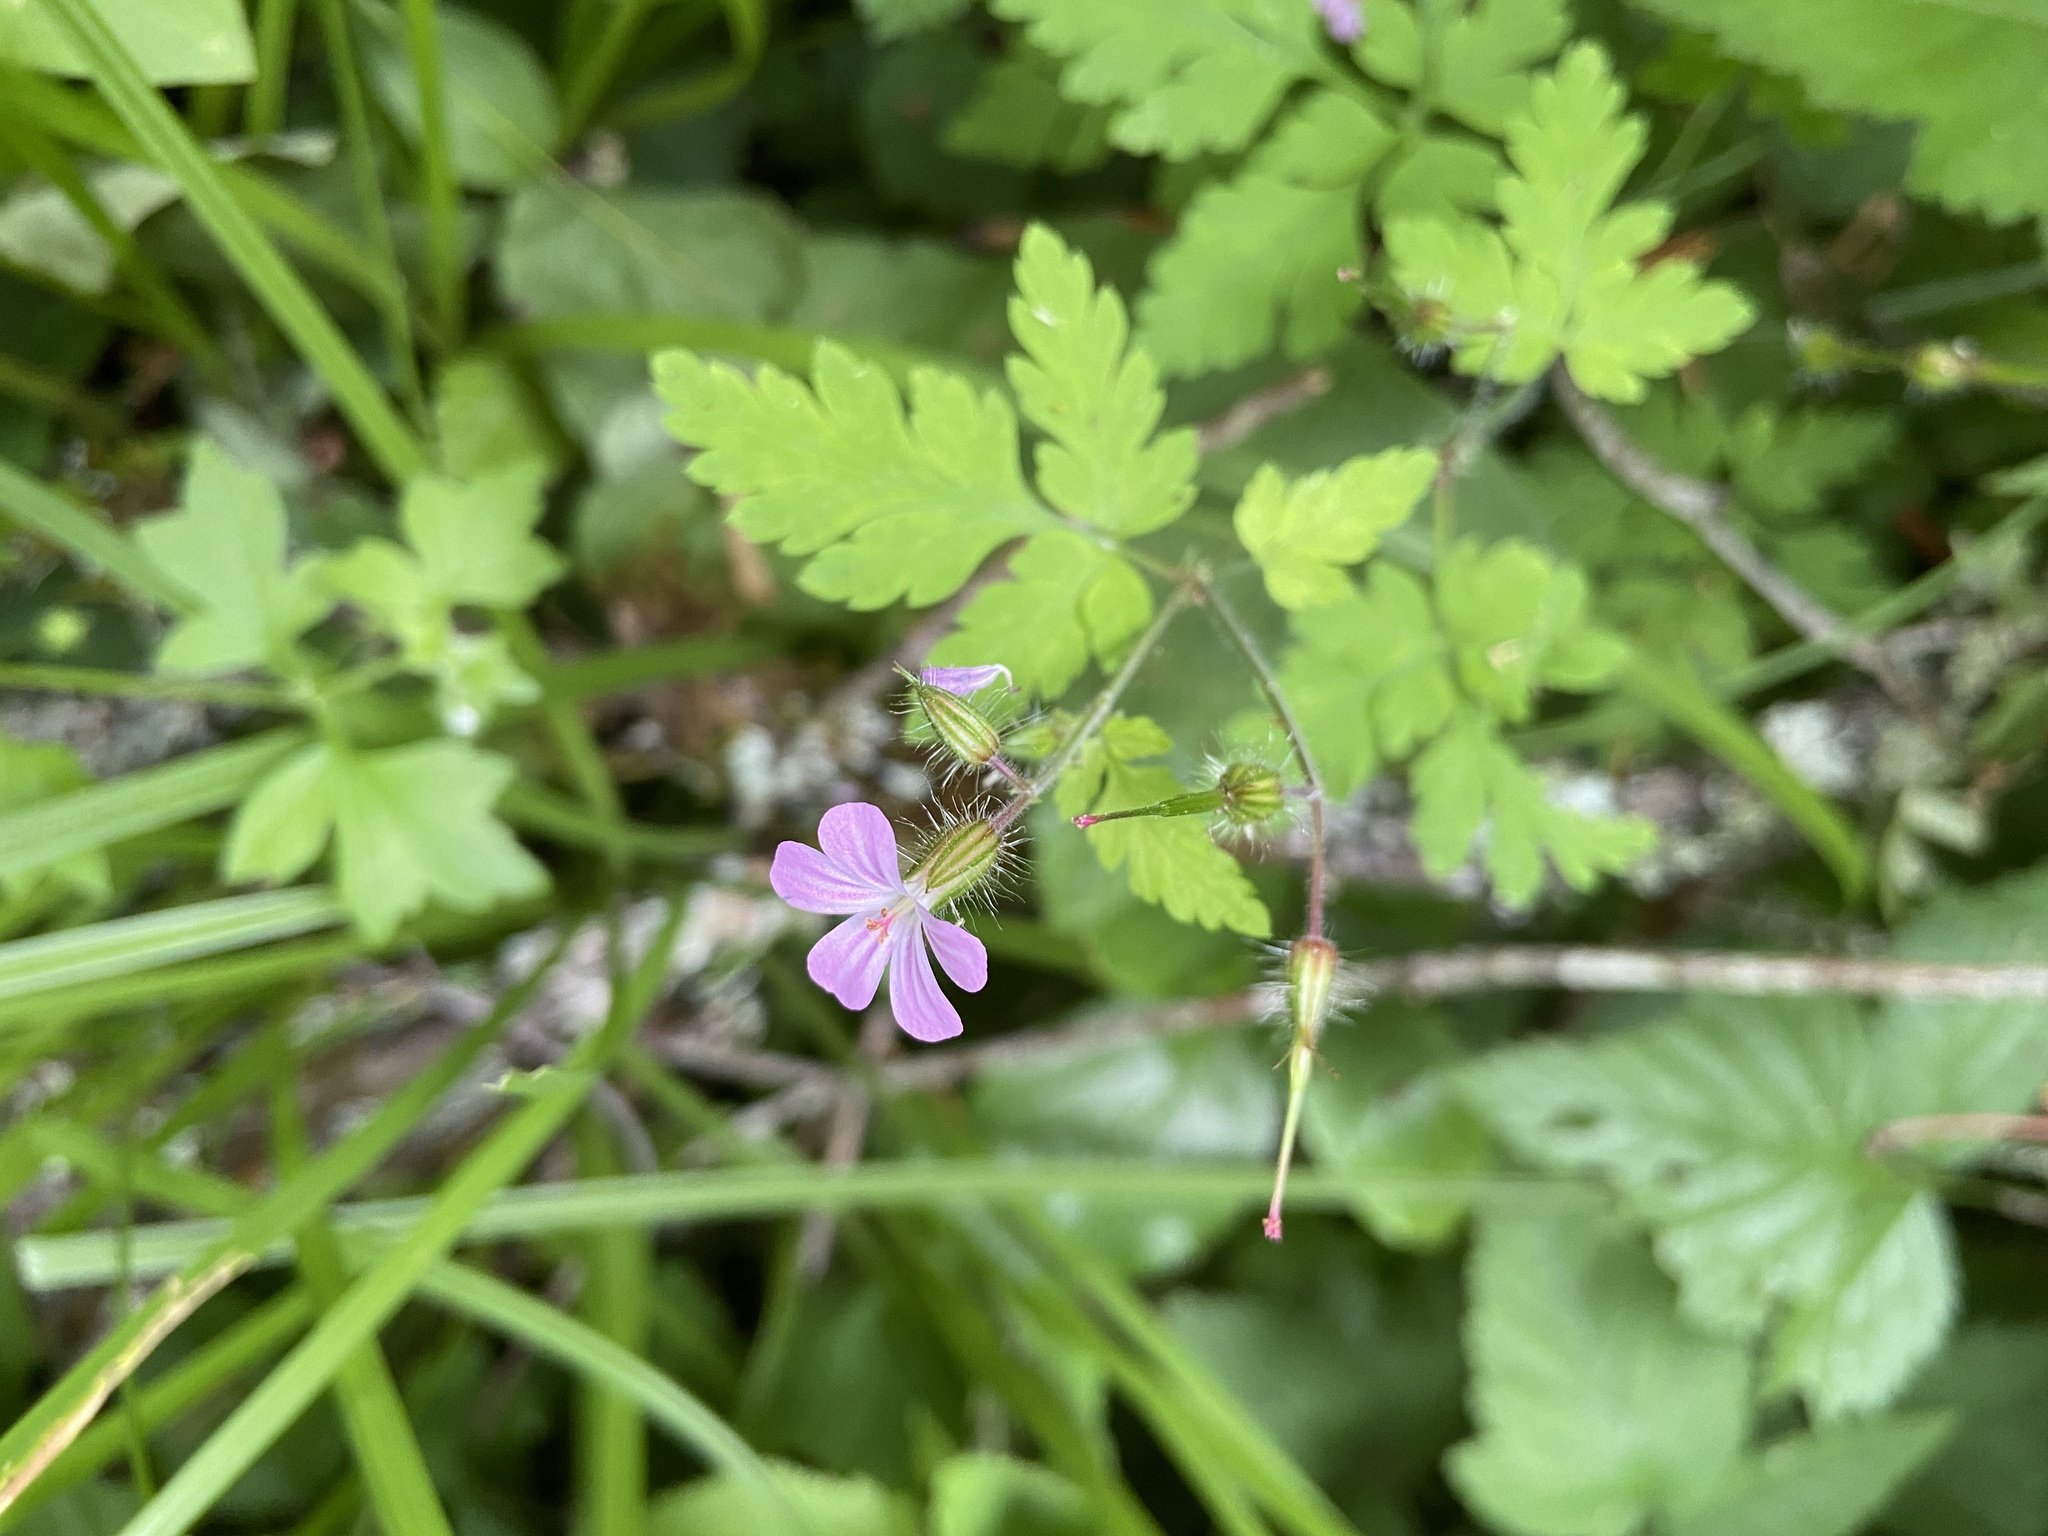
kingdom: Plantae
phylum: Tracheophyta
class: Magnoliopsida
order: Geraniales
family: Geraniaceae
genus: Geranium
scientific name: Geranium robertianum
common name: Herb-robert
